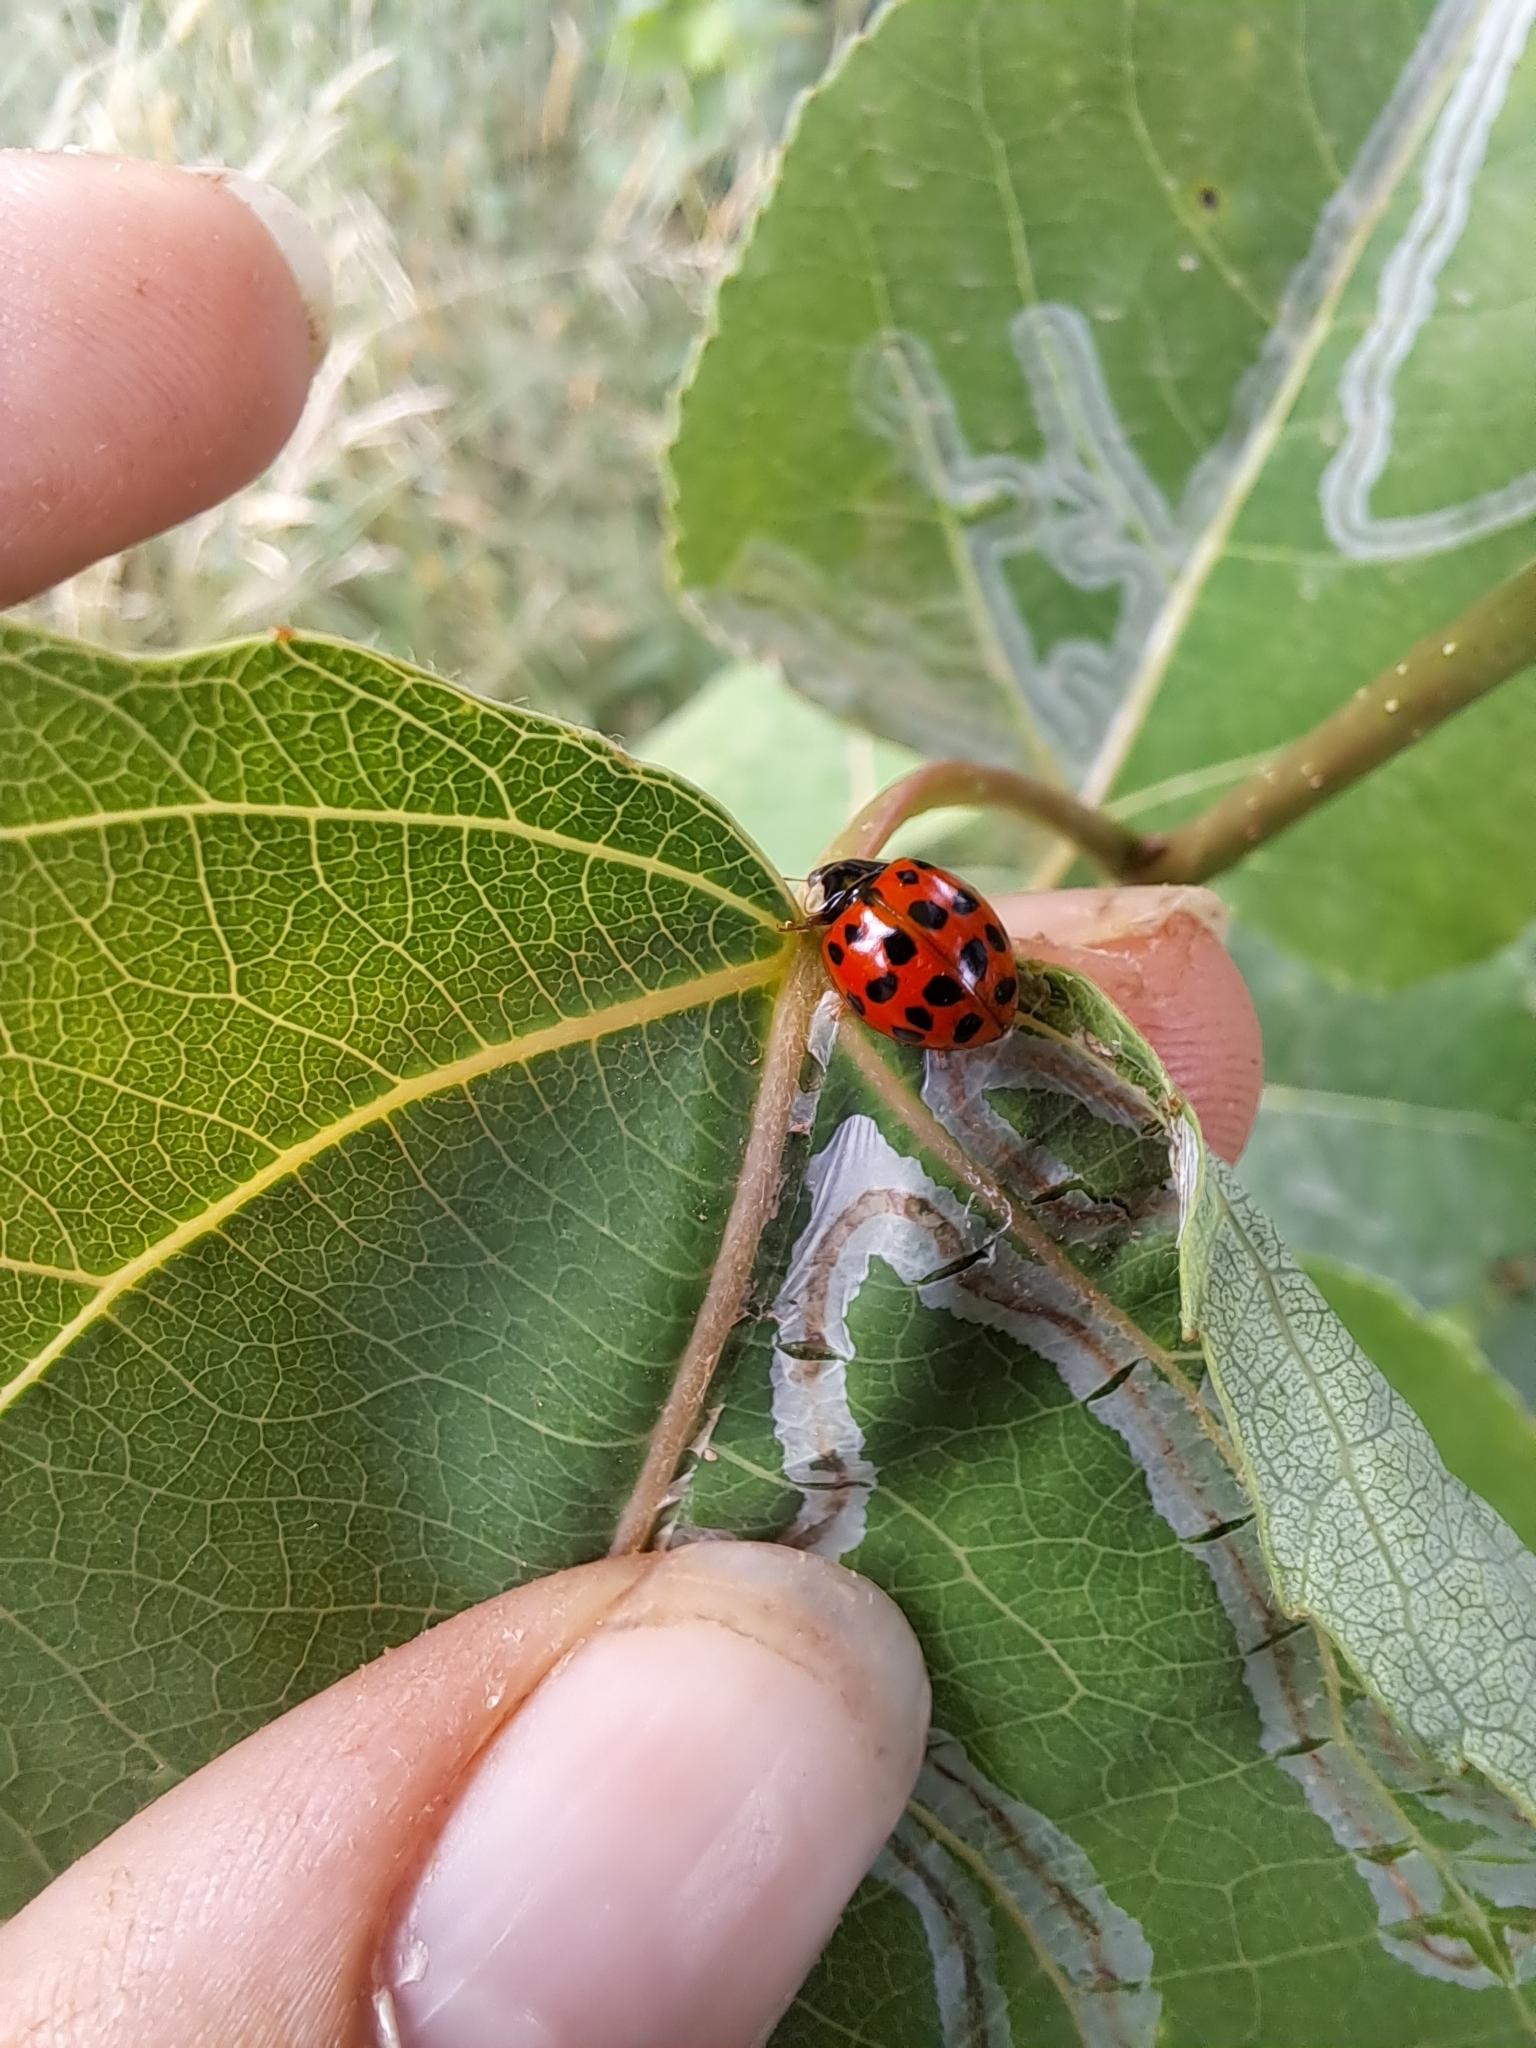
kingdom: Animalia
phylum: Arthropoda
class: Insecta
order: Coleoptera
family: Coccinellidae
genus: Harmonia
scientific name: Harmonia axyridis
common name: Harlequin ladybird
